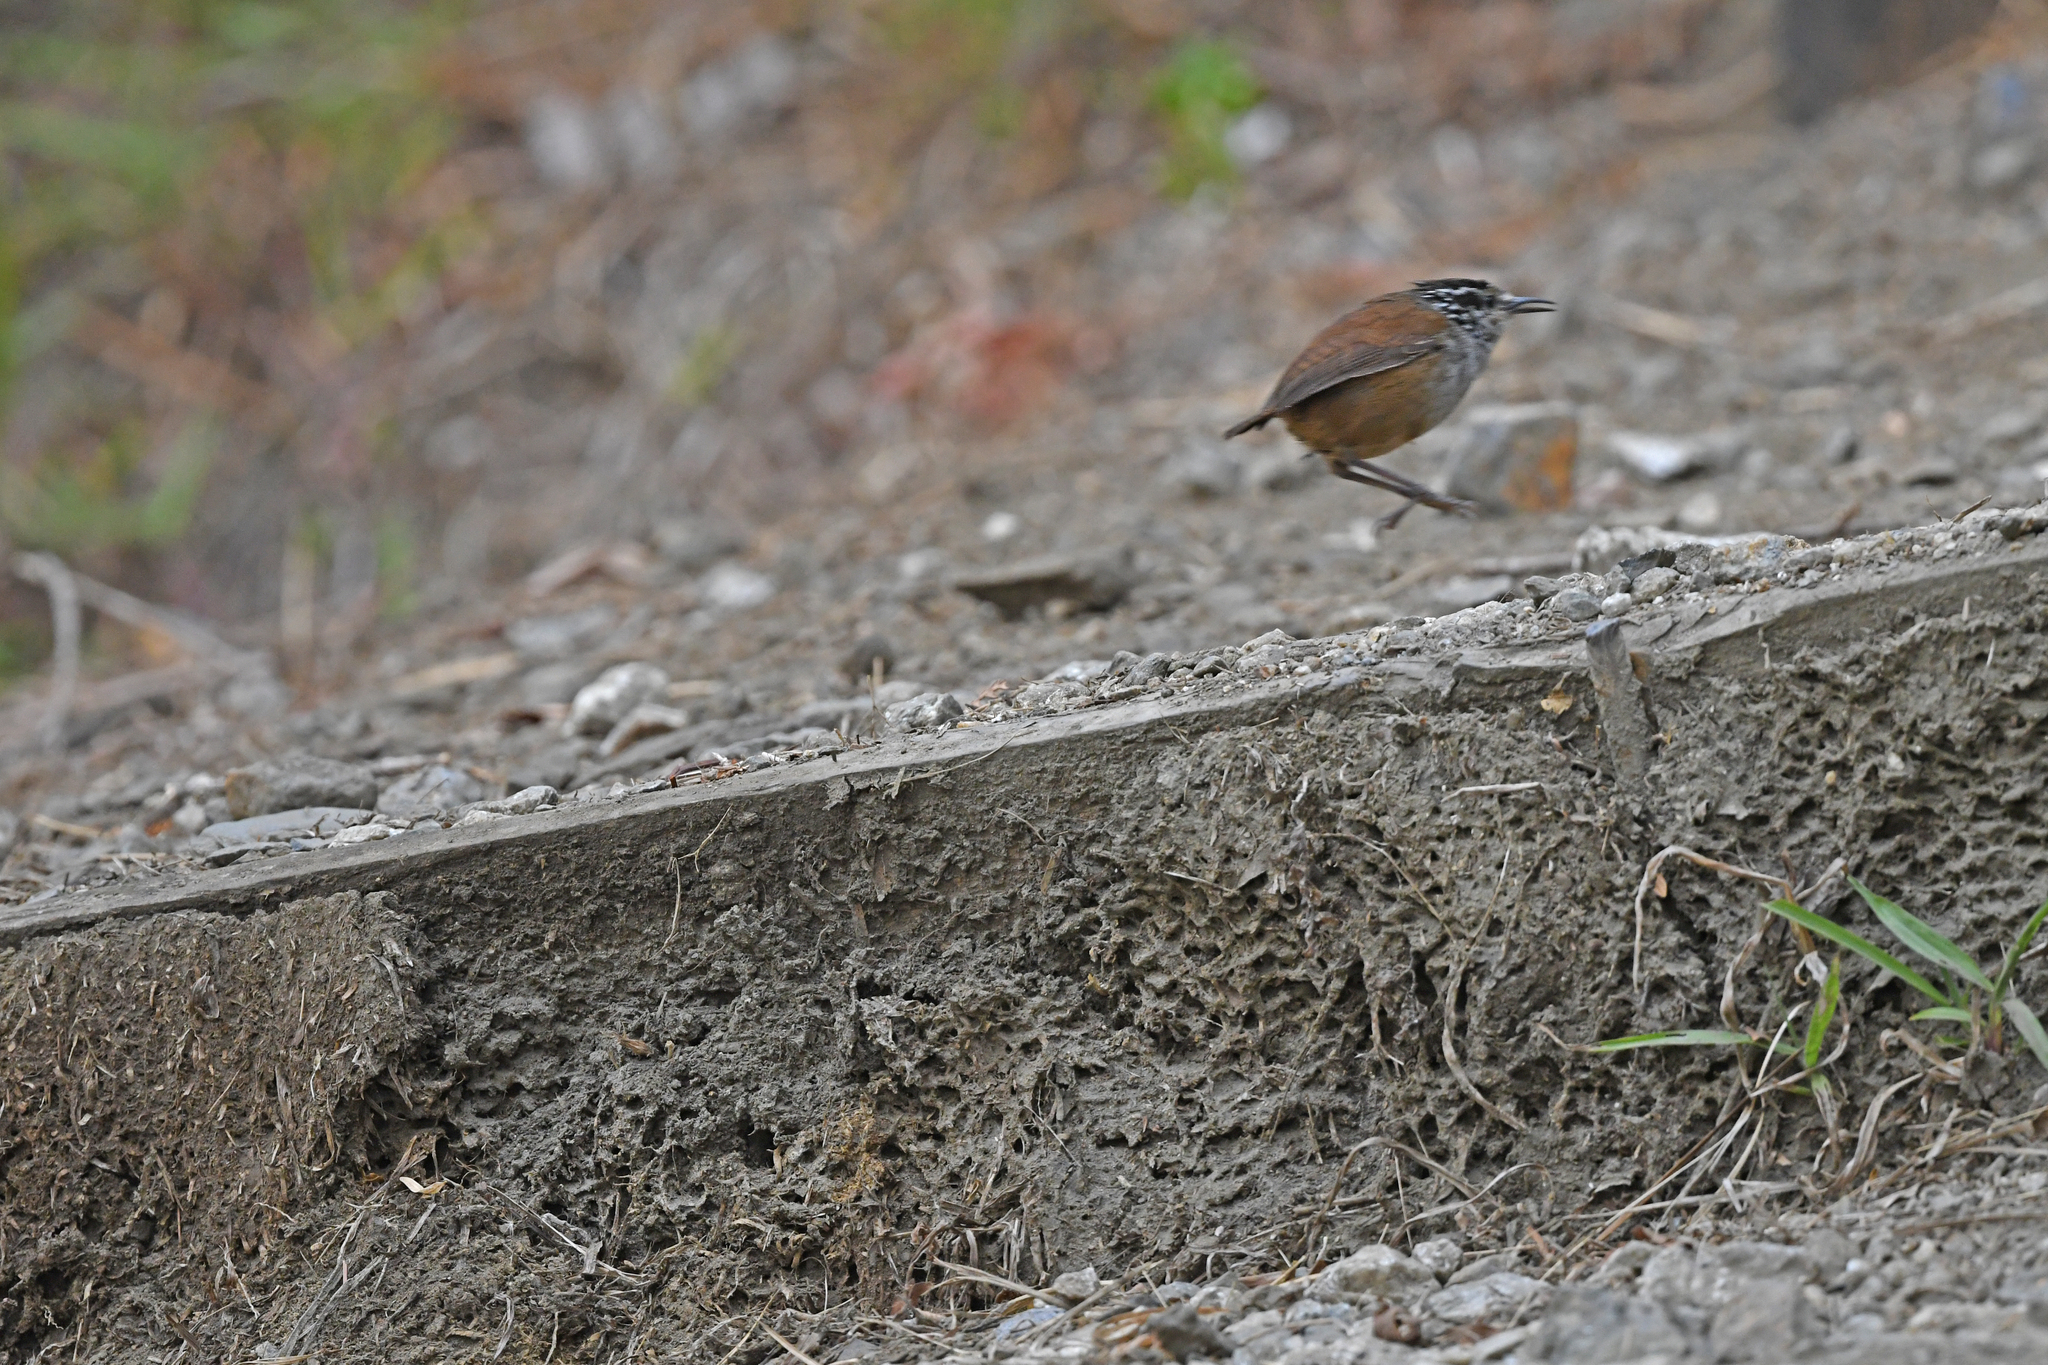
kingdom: Animalia
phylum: Chordata
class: Aves
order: Passeriformes
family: Troglodytidae
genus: Henicorhina
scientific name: Henicorhina leucophrys
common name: Gray-breasted wood-wren
